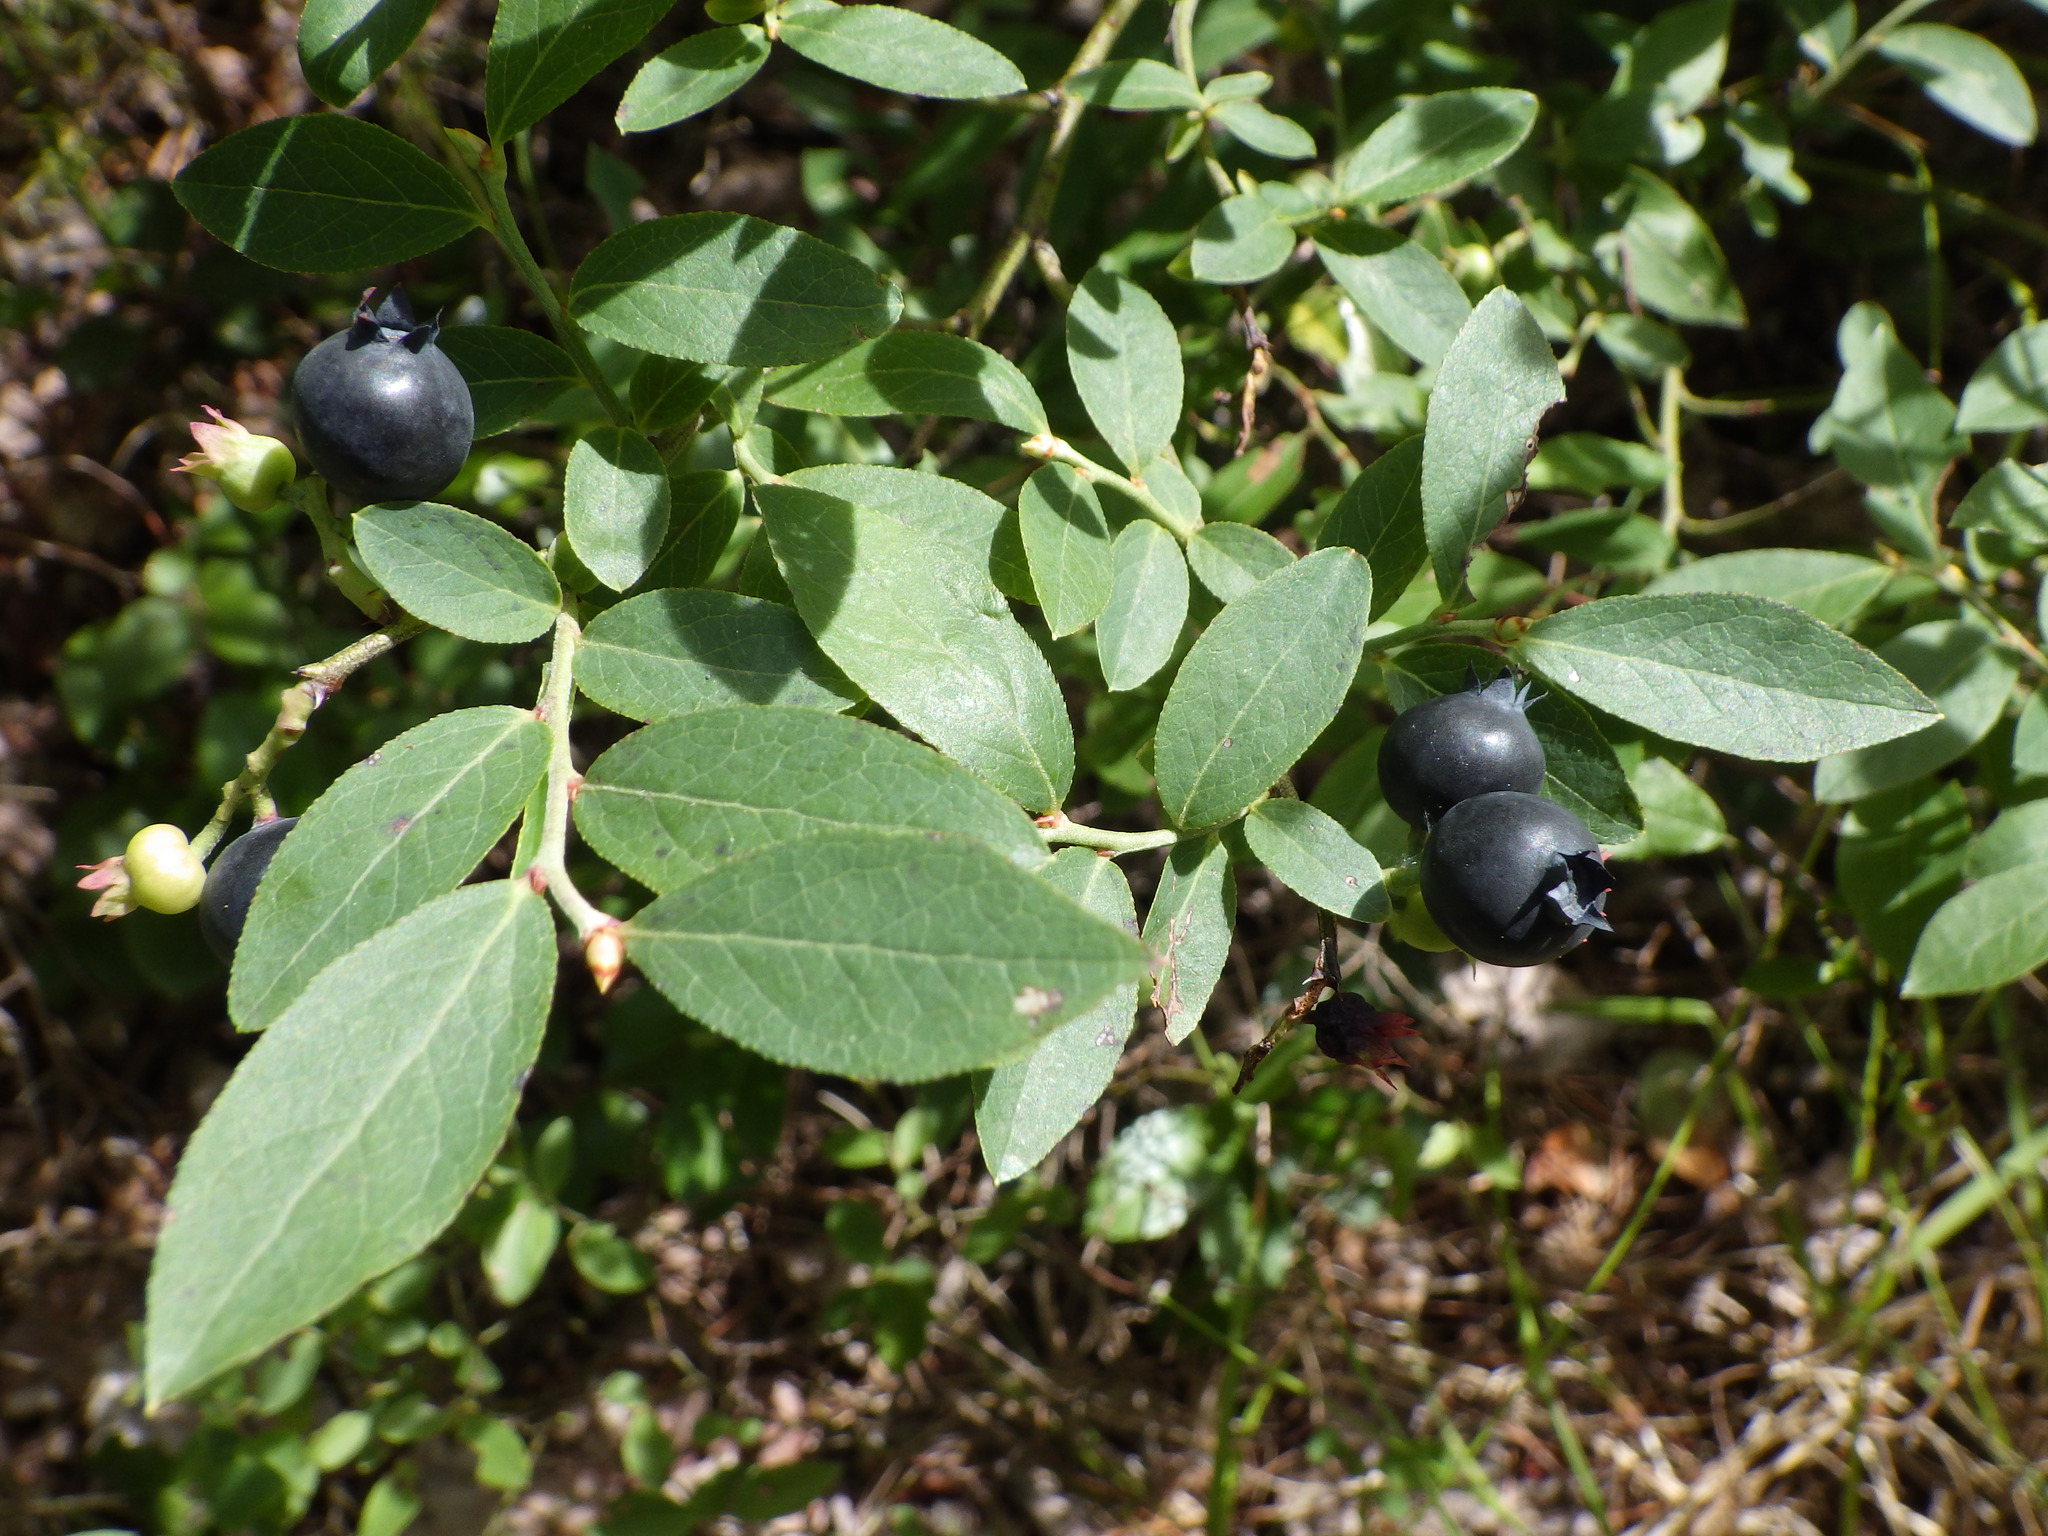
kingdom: Plantae
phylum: Tracheophyta
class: Magnoliopsida
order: Ericales
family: Ericaceae
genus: Vaccinium
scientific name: Vaccinium angustifolium
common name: Early lowbush blueberry
